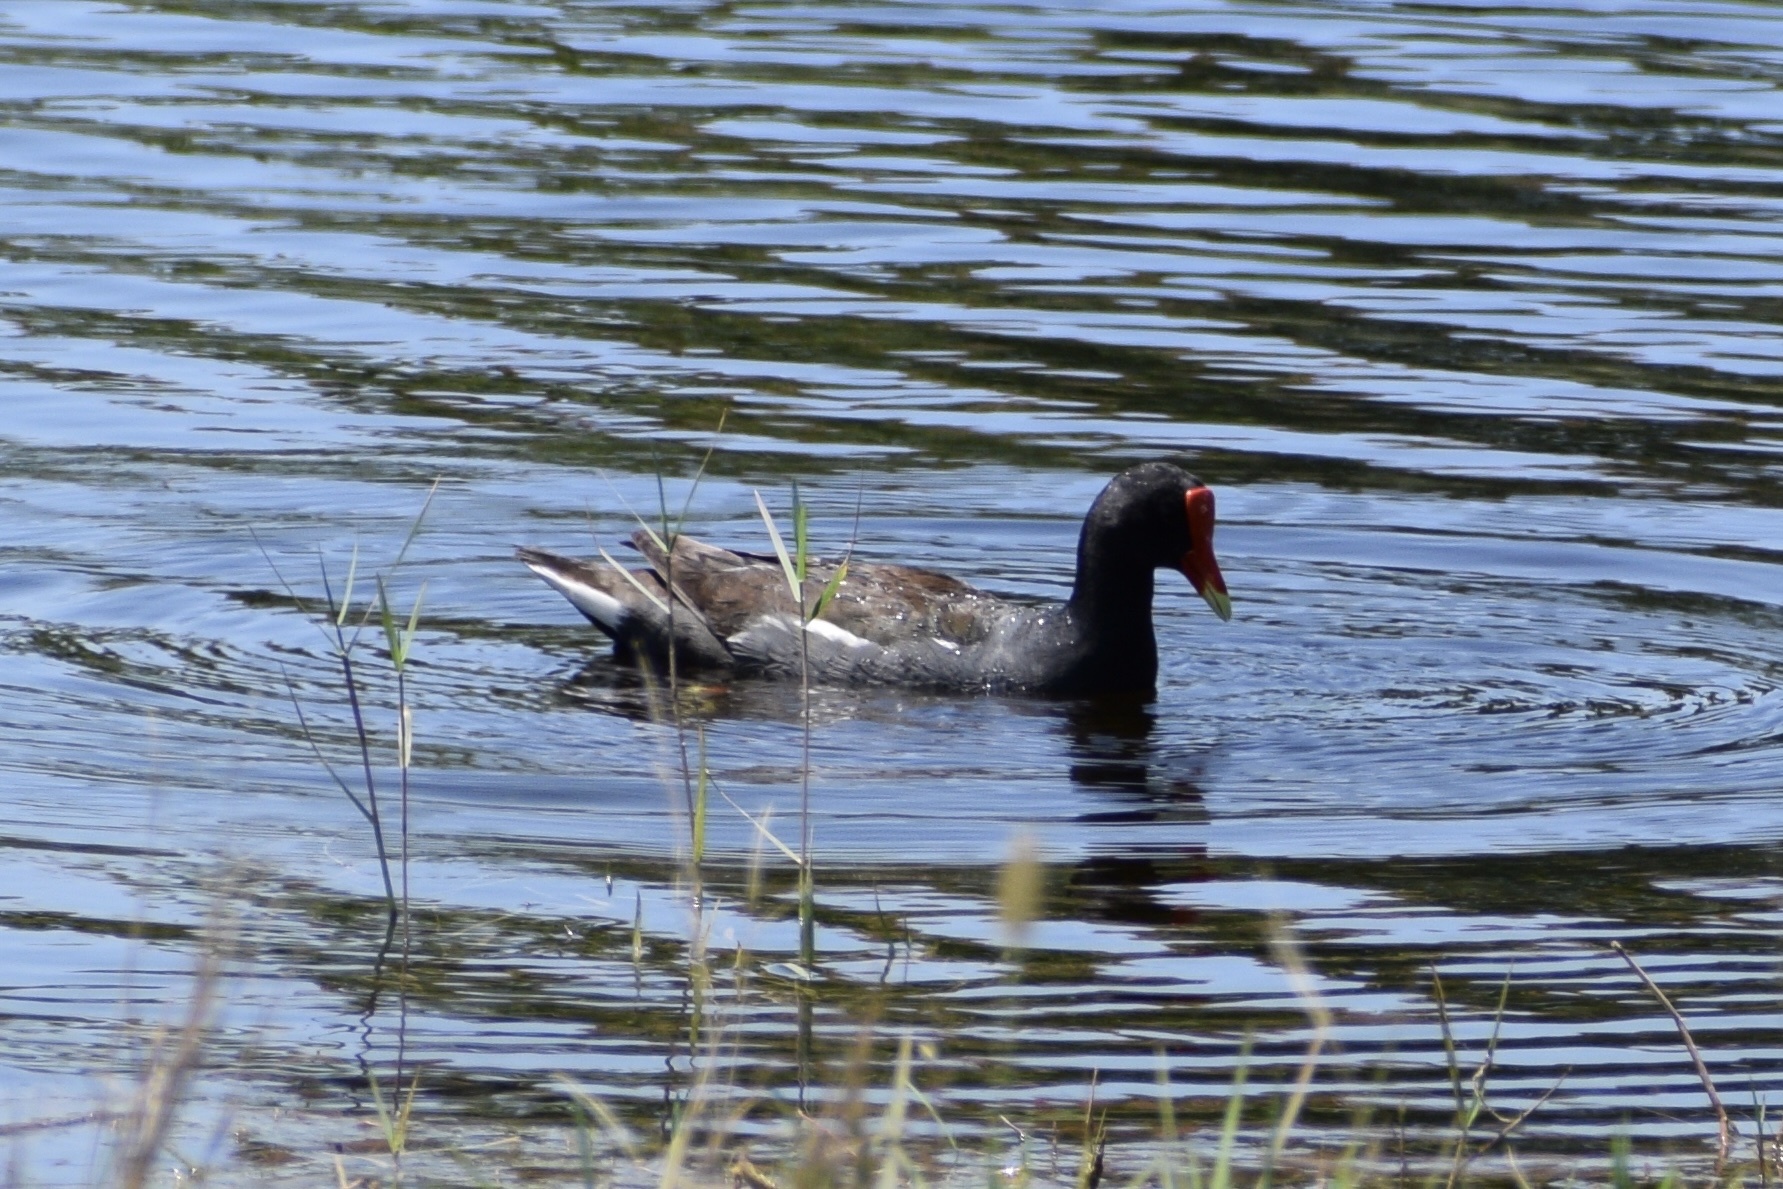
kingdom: Animalia
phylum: Chordata
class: Aves
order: Gruiformes
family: Rallidae
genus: Gallinula
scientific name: Gallinula chloropus
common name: Common moorhen
